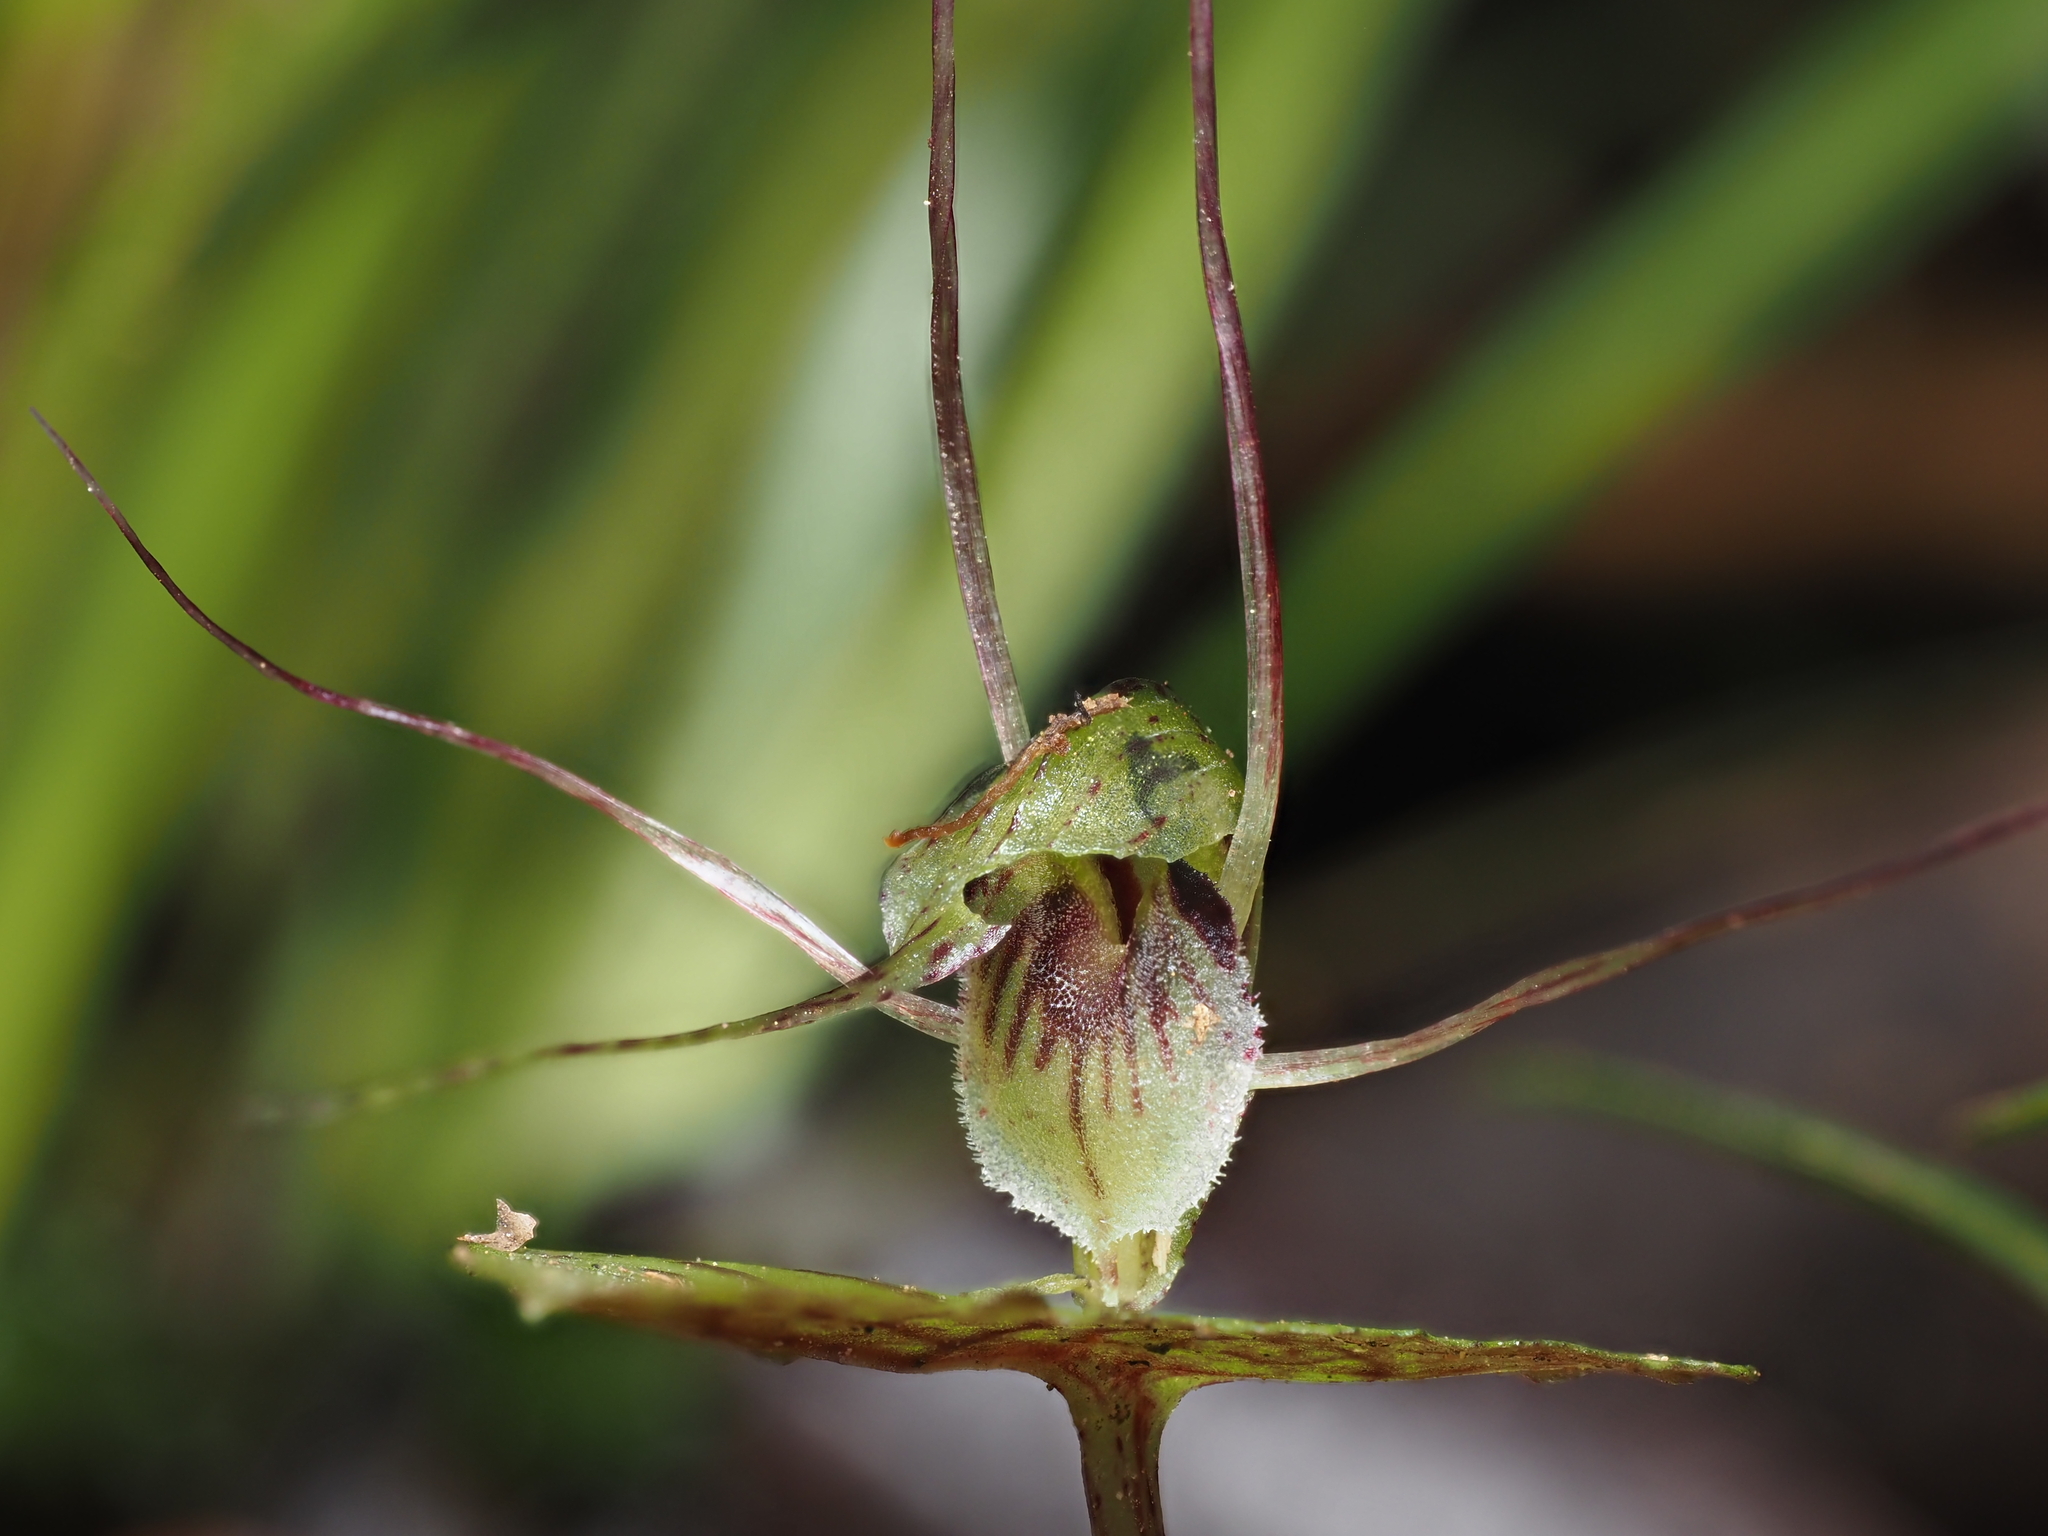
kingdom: Plantae
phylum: Tracheophyta
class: Liliopsida
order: Asparagales
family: Orchidaceae
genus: Corybas
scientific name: Corybas acuminatus
